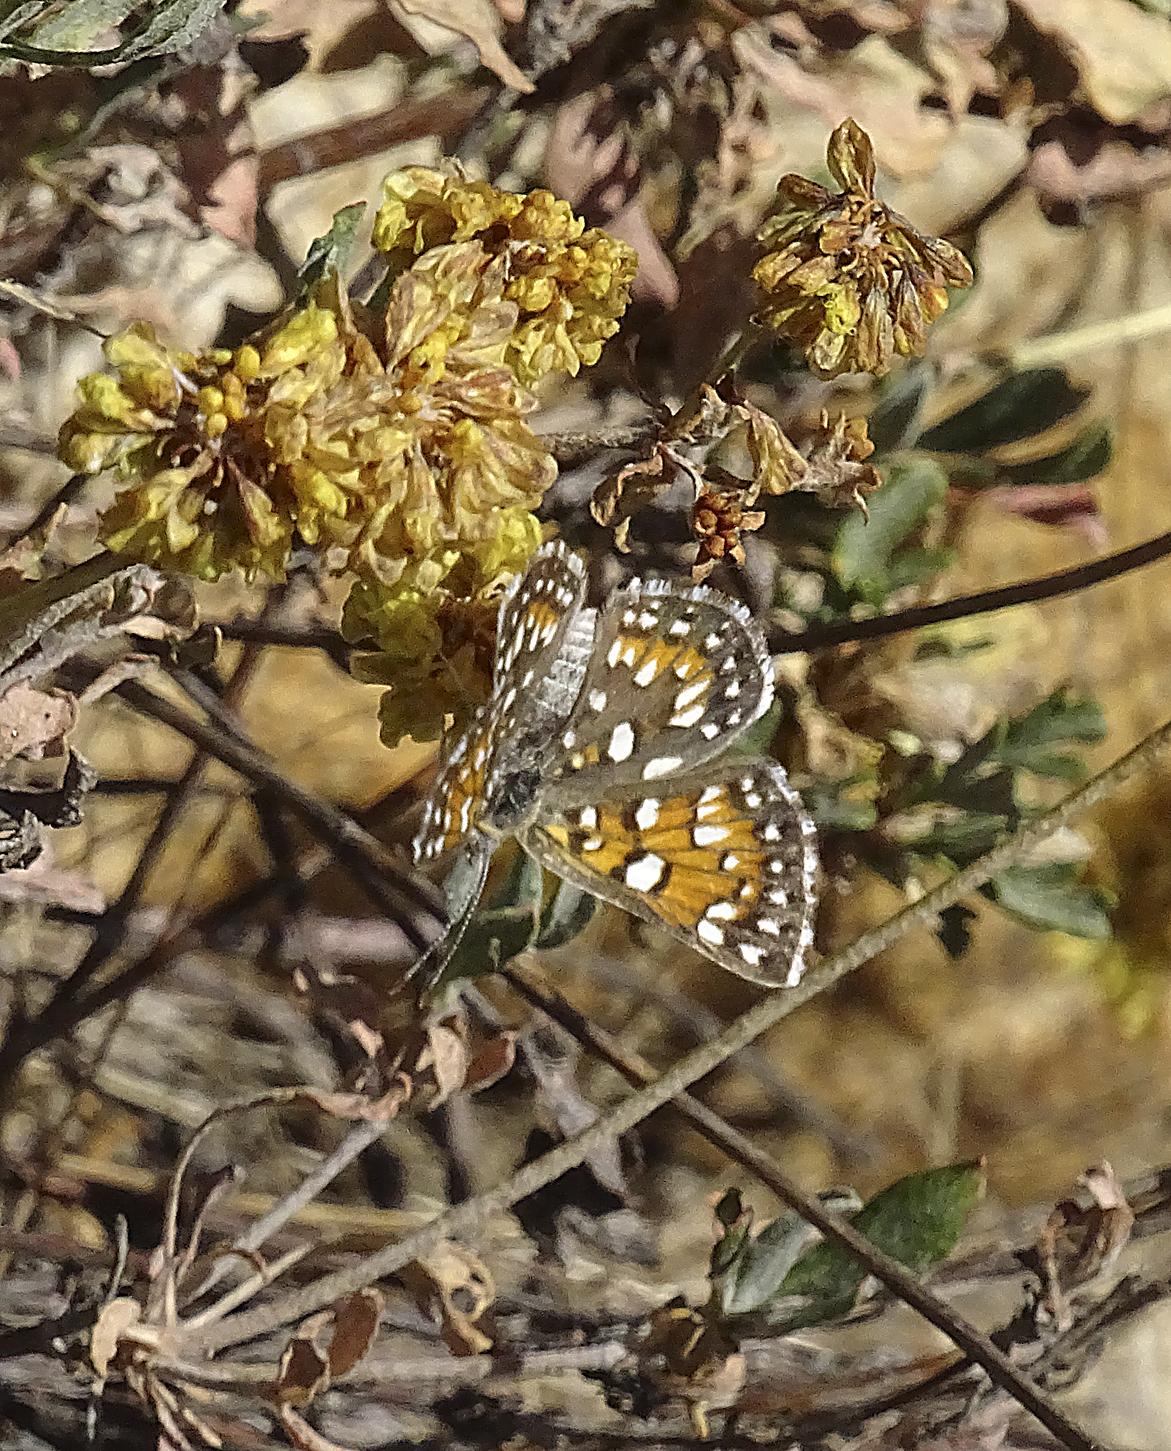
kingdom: Animalia
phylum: Arthropoda
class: Insecta
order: Lepidoptera
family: Riodinidae
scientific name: Riodinidae
